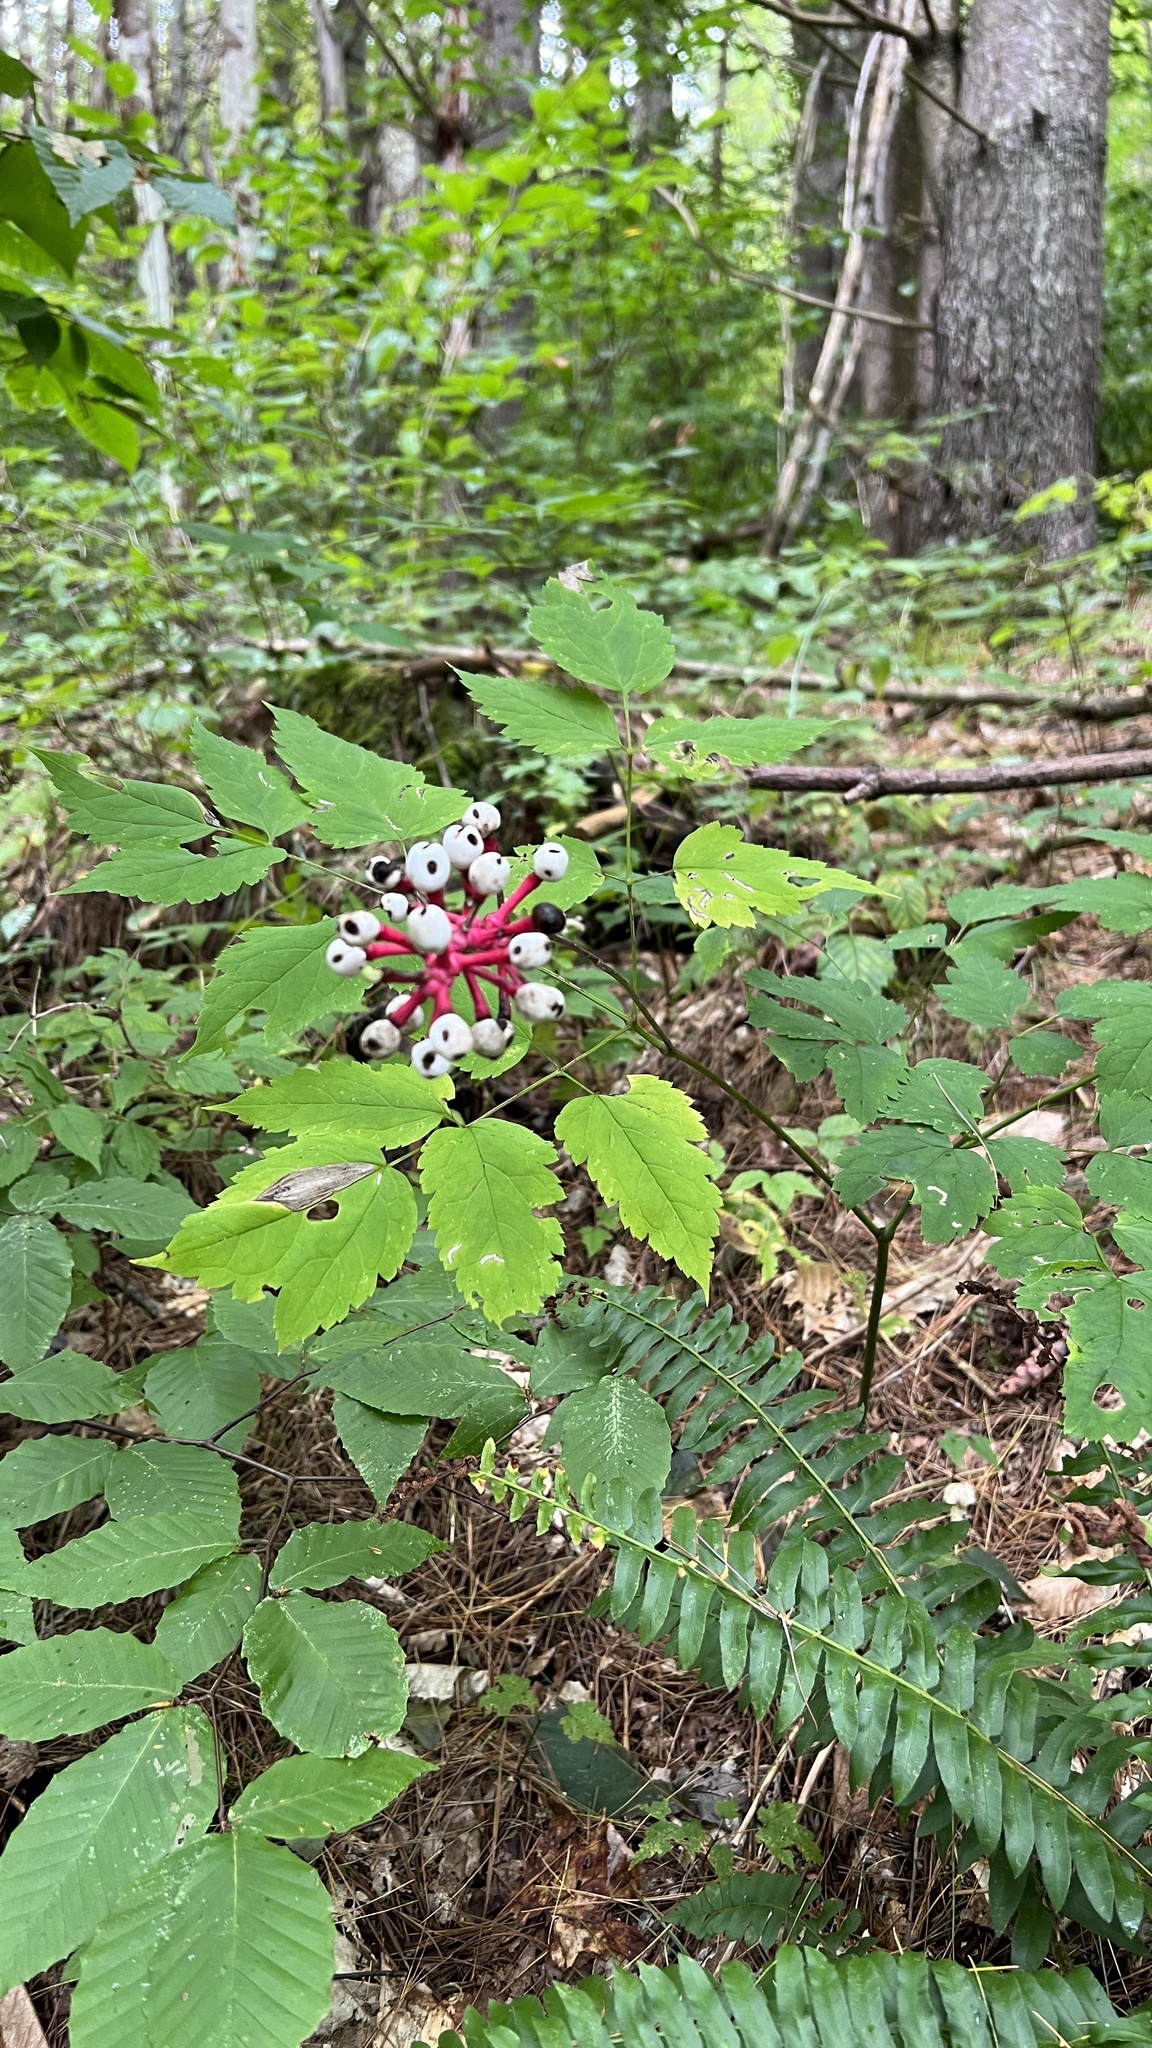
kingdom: Plantae
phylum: Tracheophyta
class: Magnoliopsida
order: Ranunculales
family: Ranunculaceae
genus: Actaea
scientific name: Actaea pachypoda
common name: Doll's-eyes
